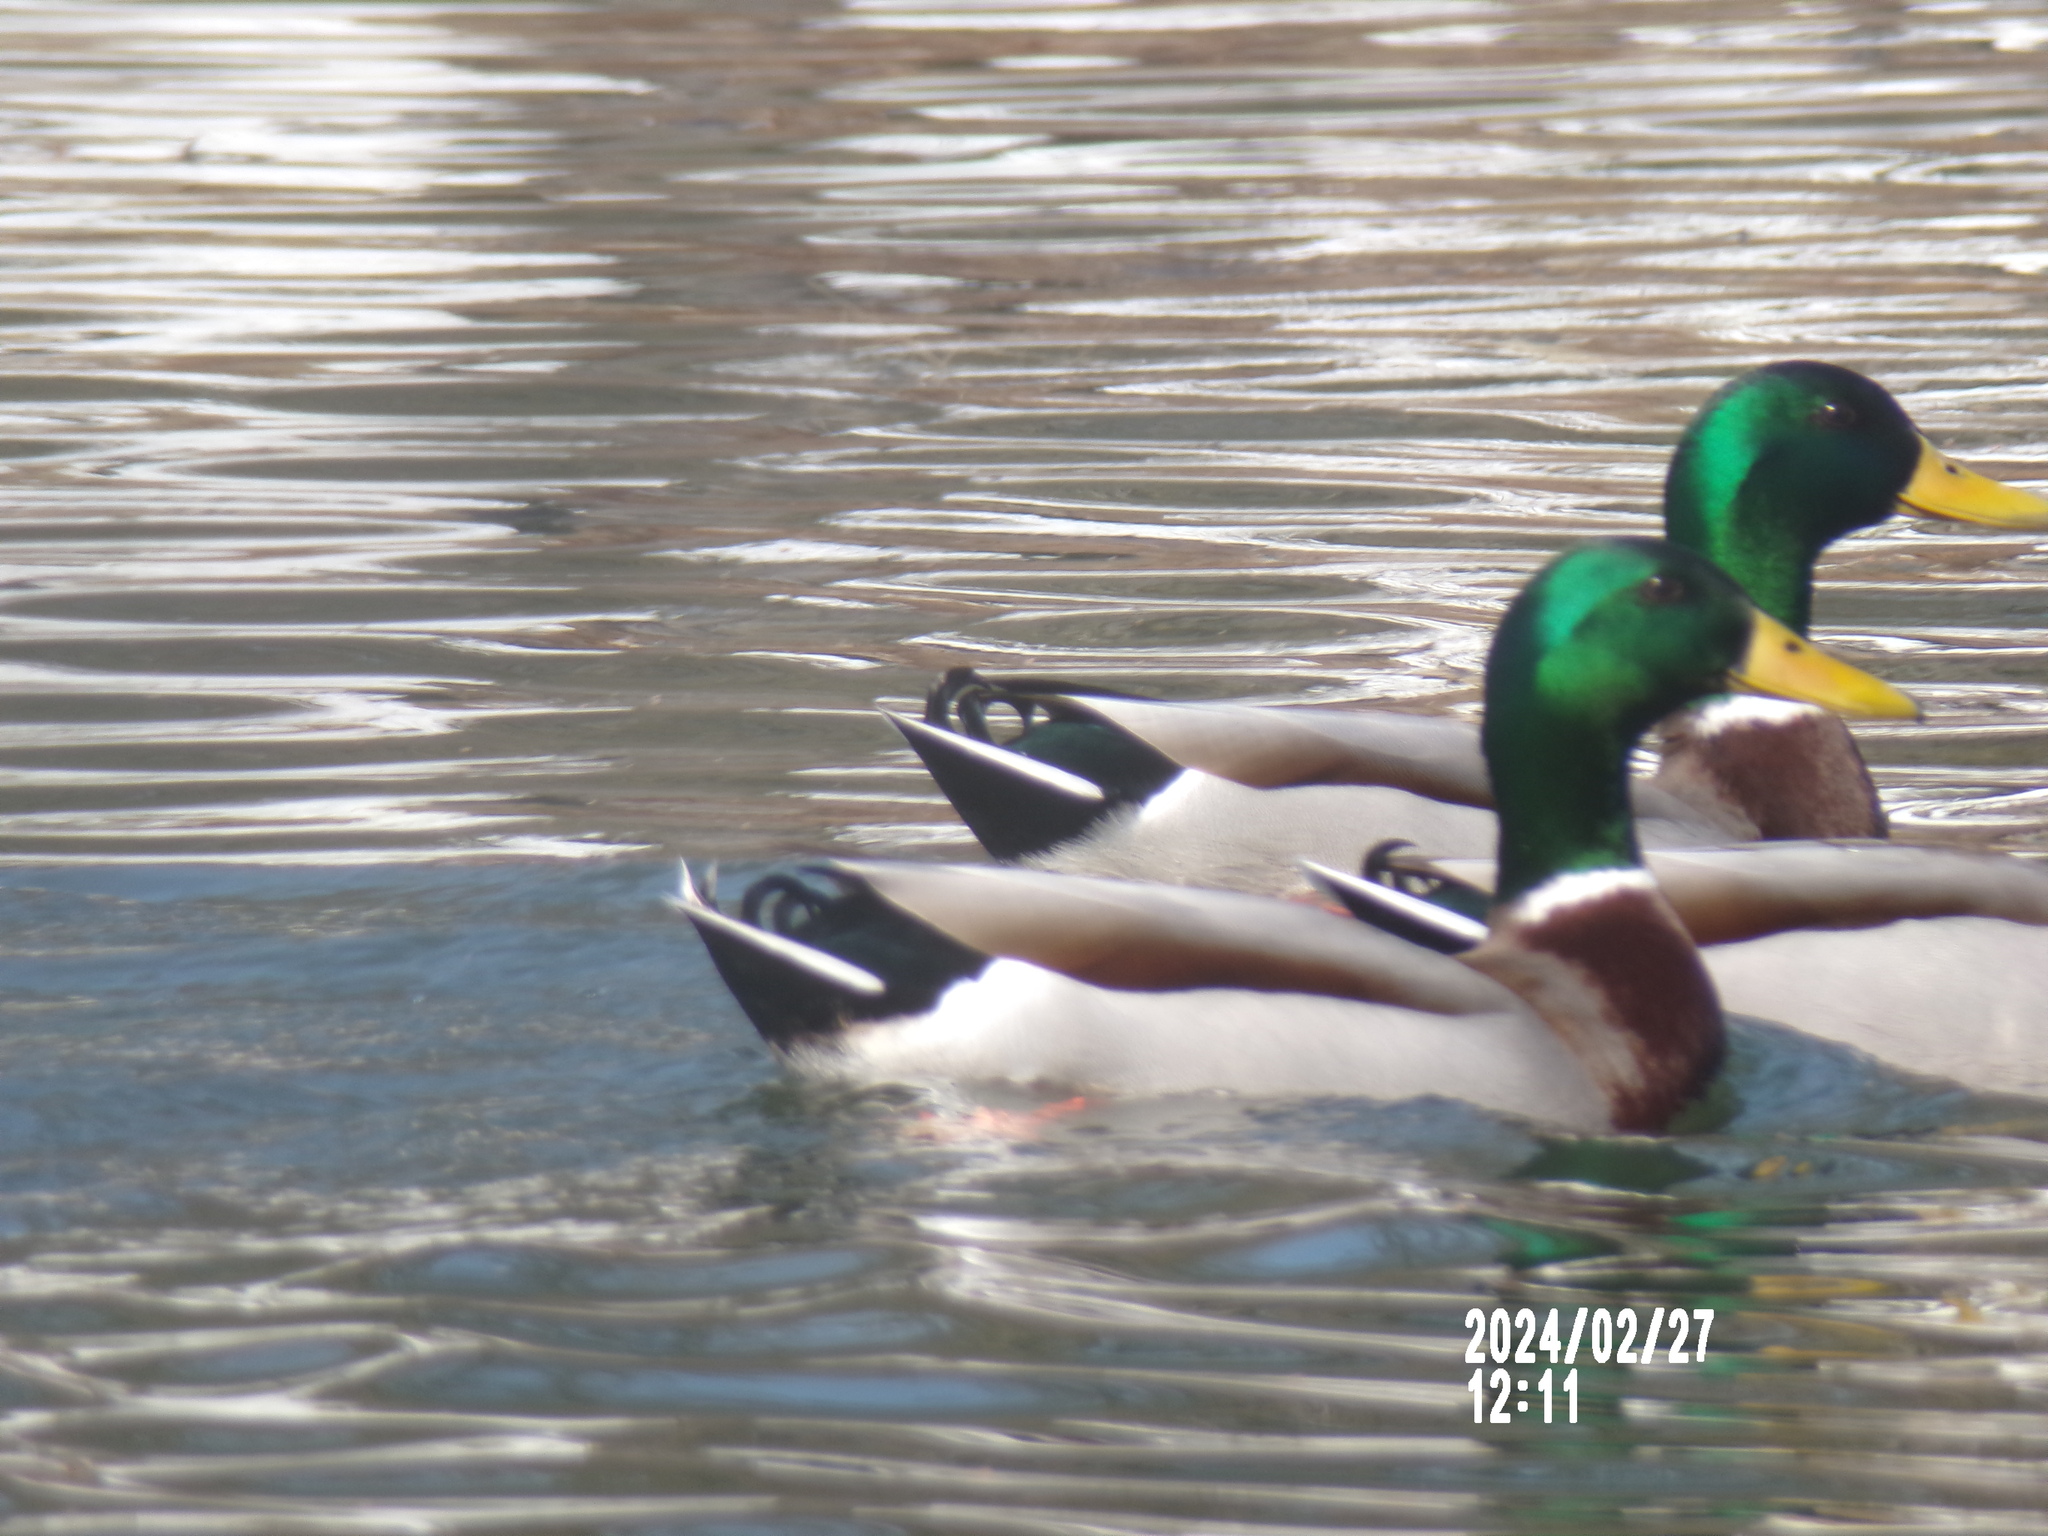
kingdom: Animalia
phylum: Chordata
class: Aves
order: Anseriformes
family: Anatidae
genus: Anas
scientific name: Anas platyrhynchos
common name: Mallard
